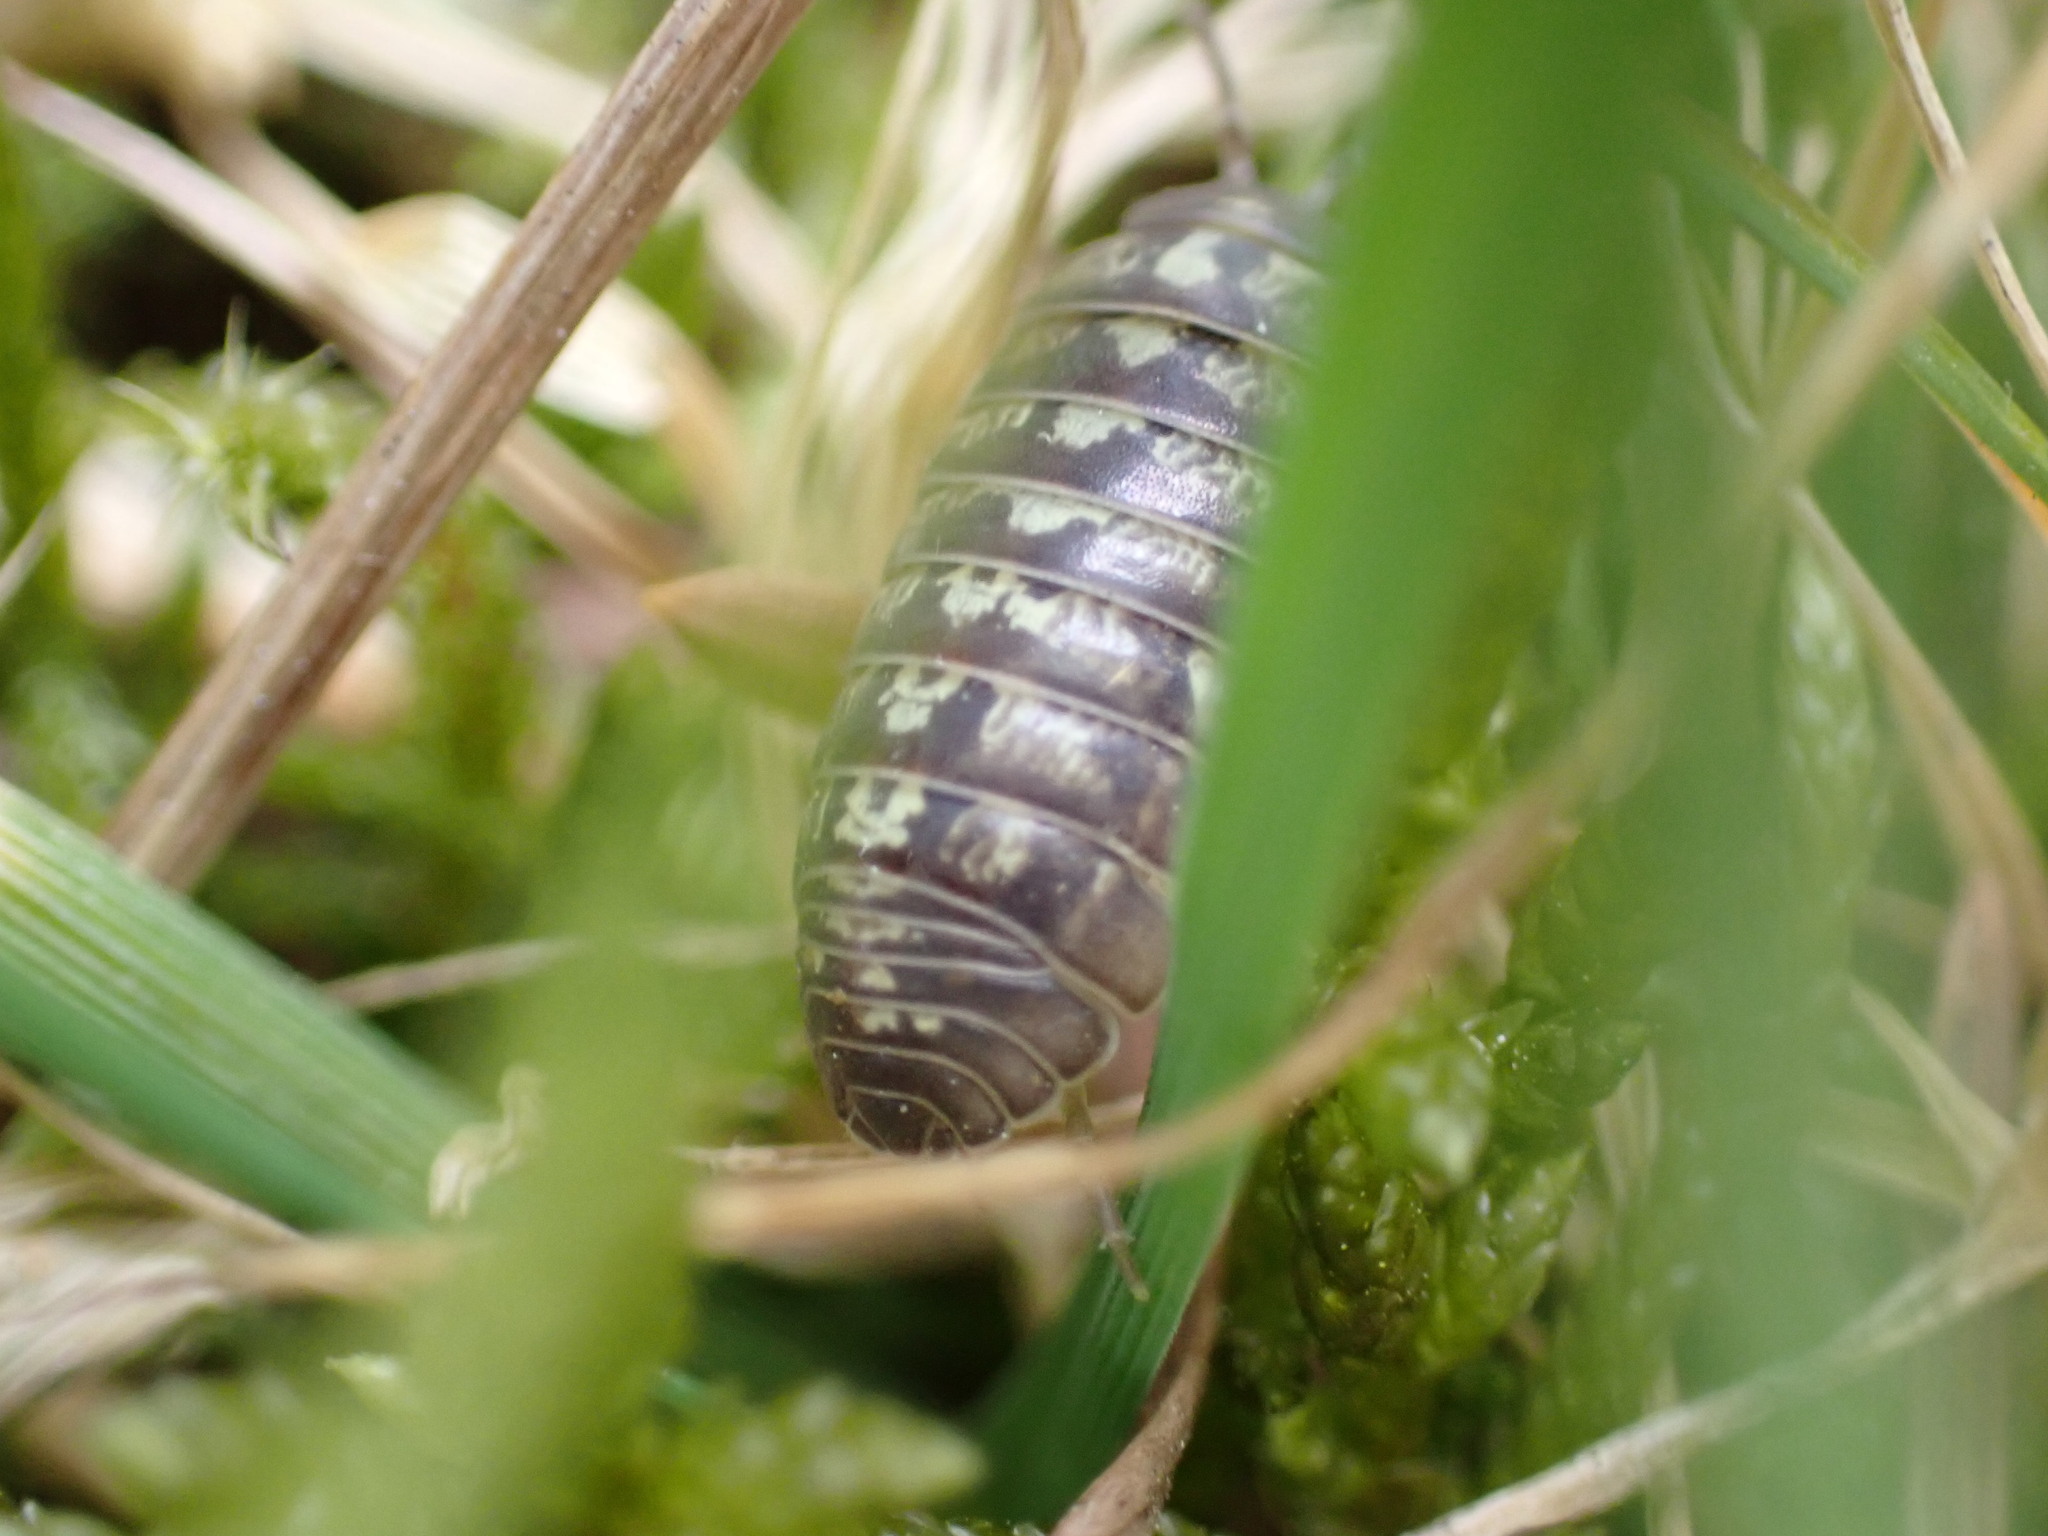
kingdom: Animalia
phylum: Arthropoda
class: Malacostraca
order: Isopoda
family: Armadillidiidae
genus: Armadillidium
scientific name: Armadillidium vulgare
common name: Common pill woodlouse
